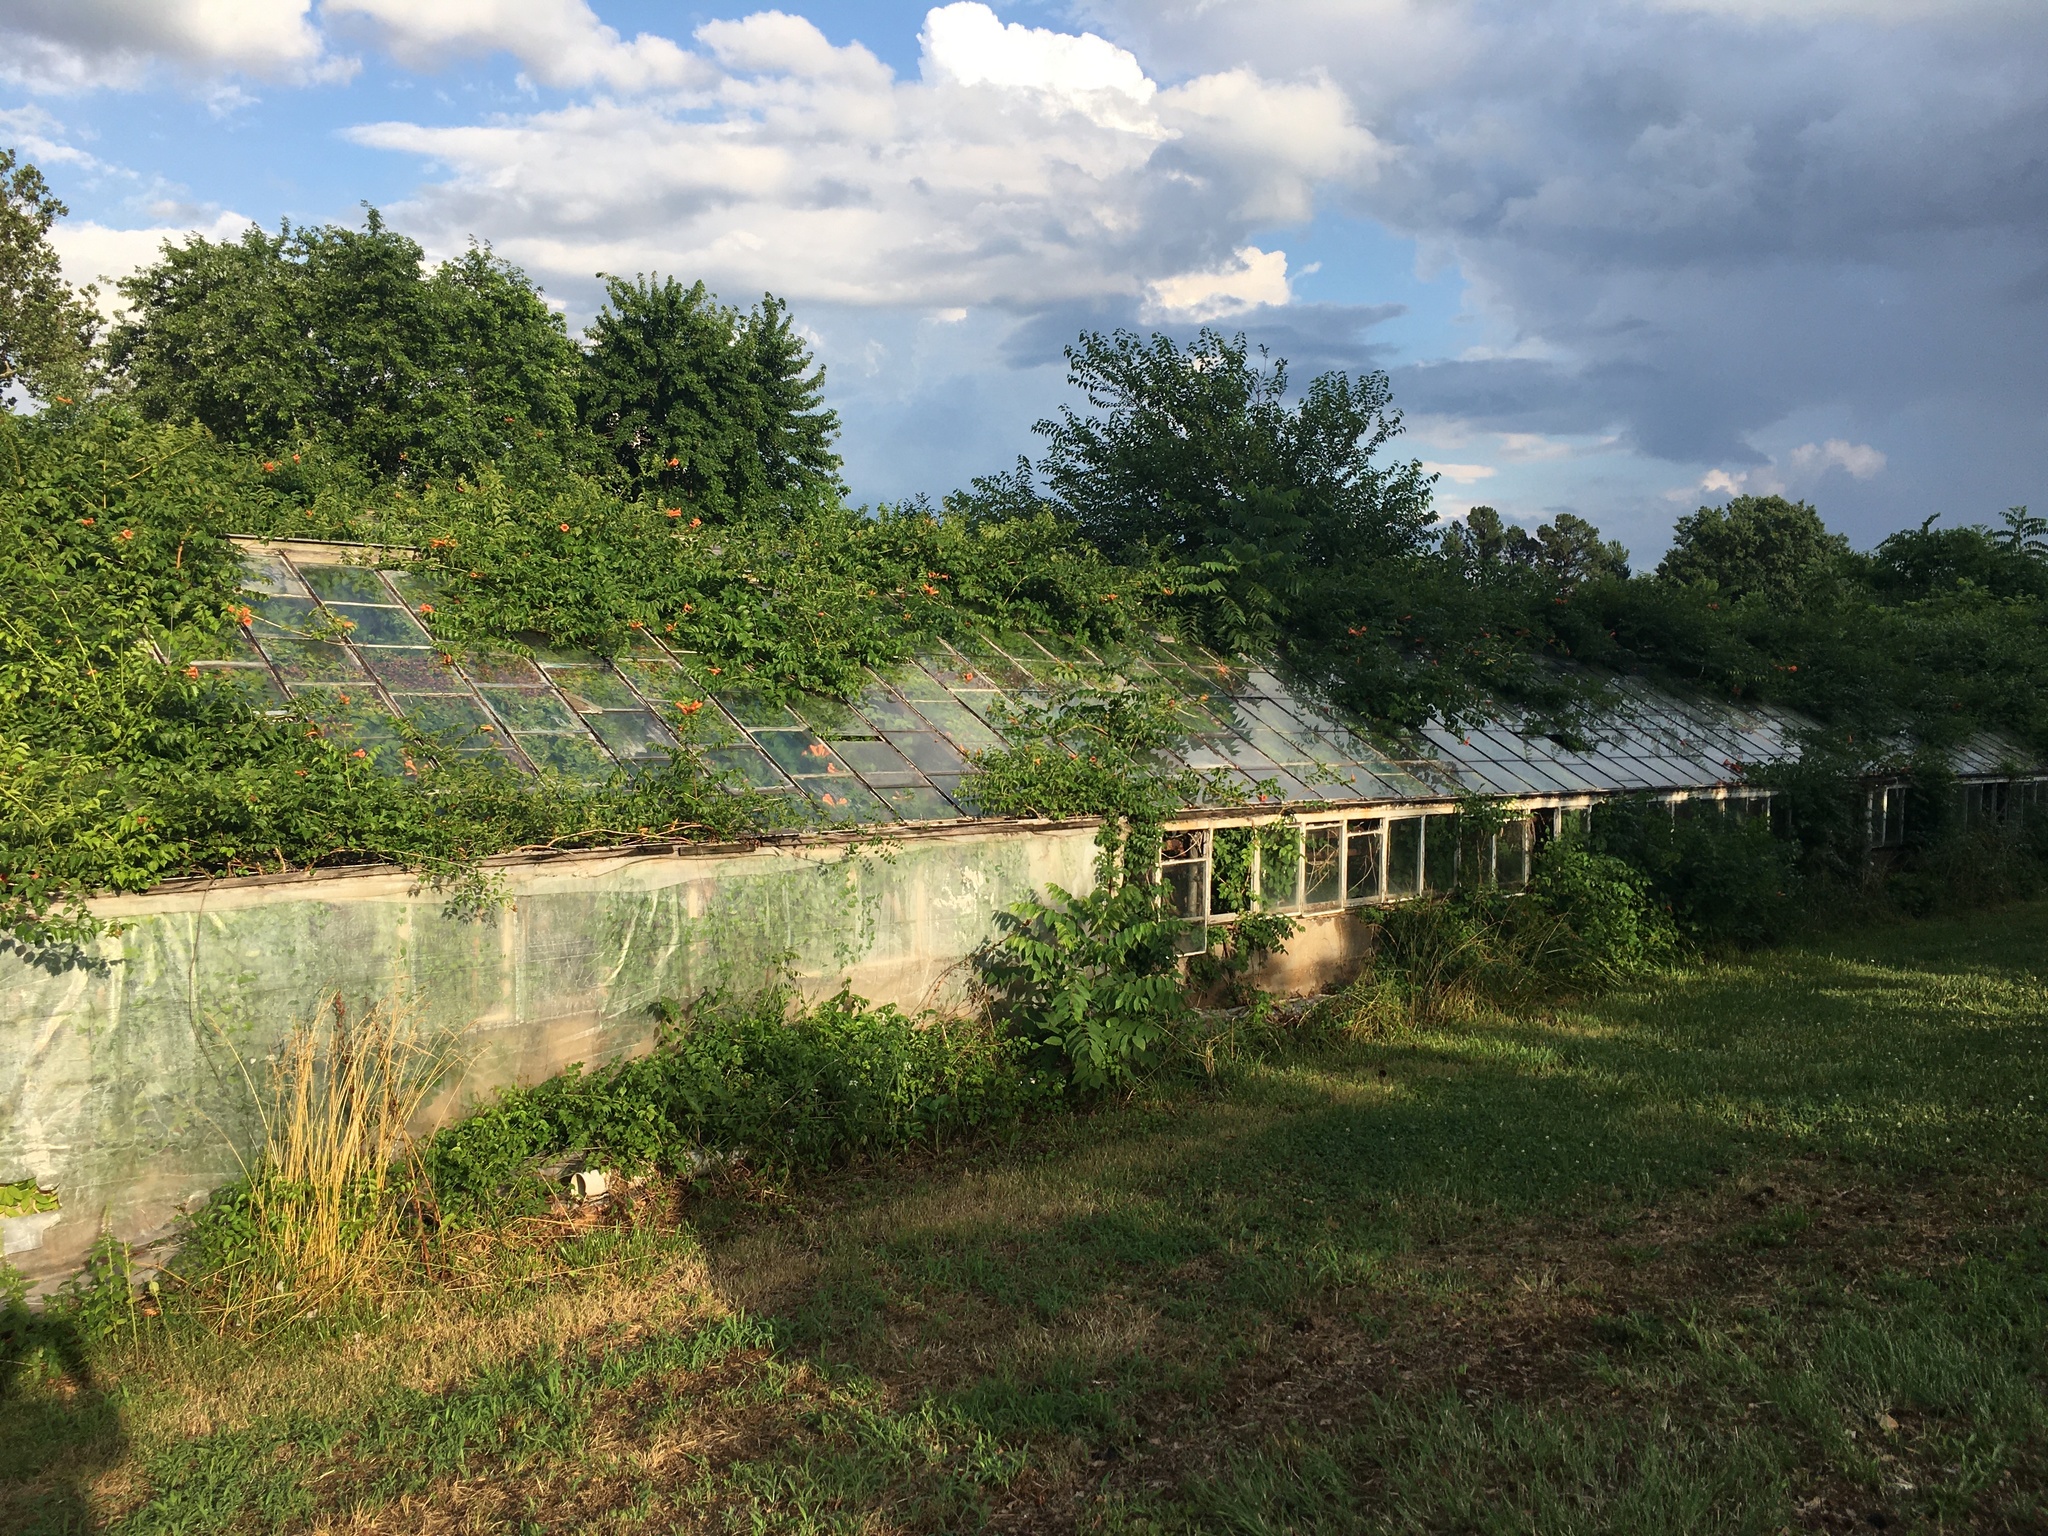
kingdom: Plantae
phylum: Tracheophyta
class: Magnoliopsida
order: Lamiales
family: Bignoniaceae
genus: Campsis
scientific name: Campsis radicans
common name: Trumpet-creeper
